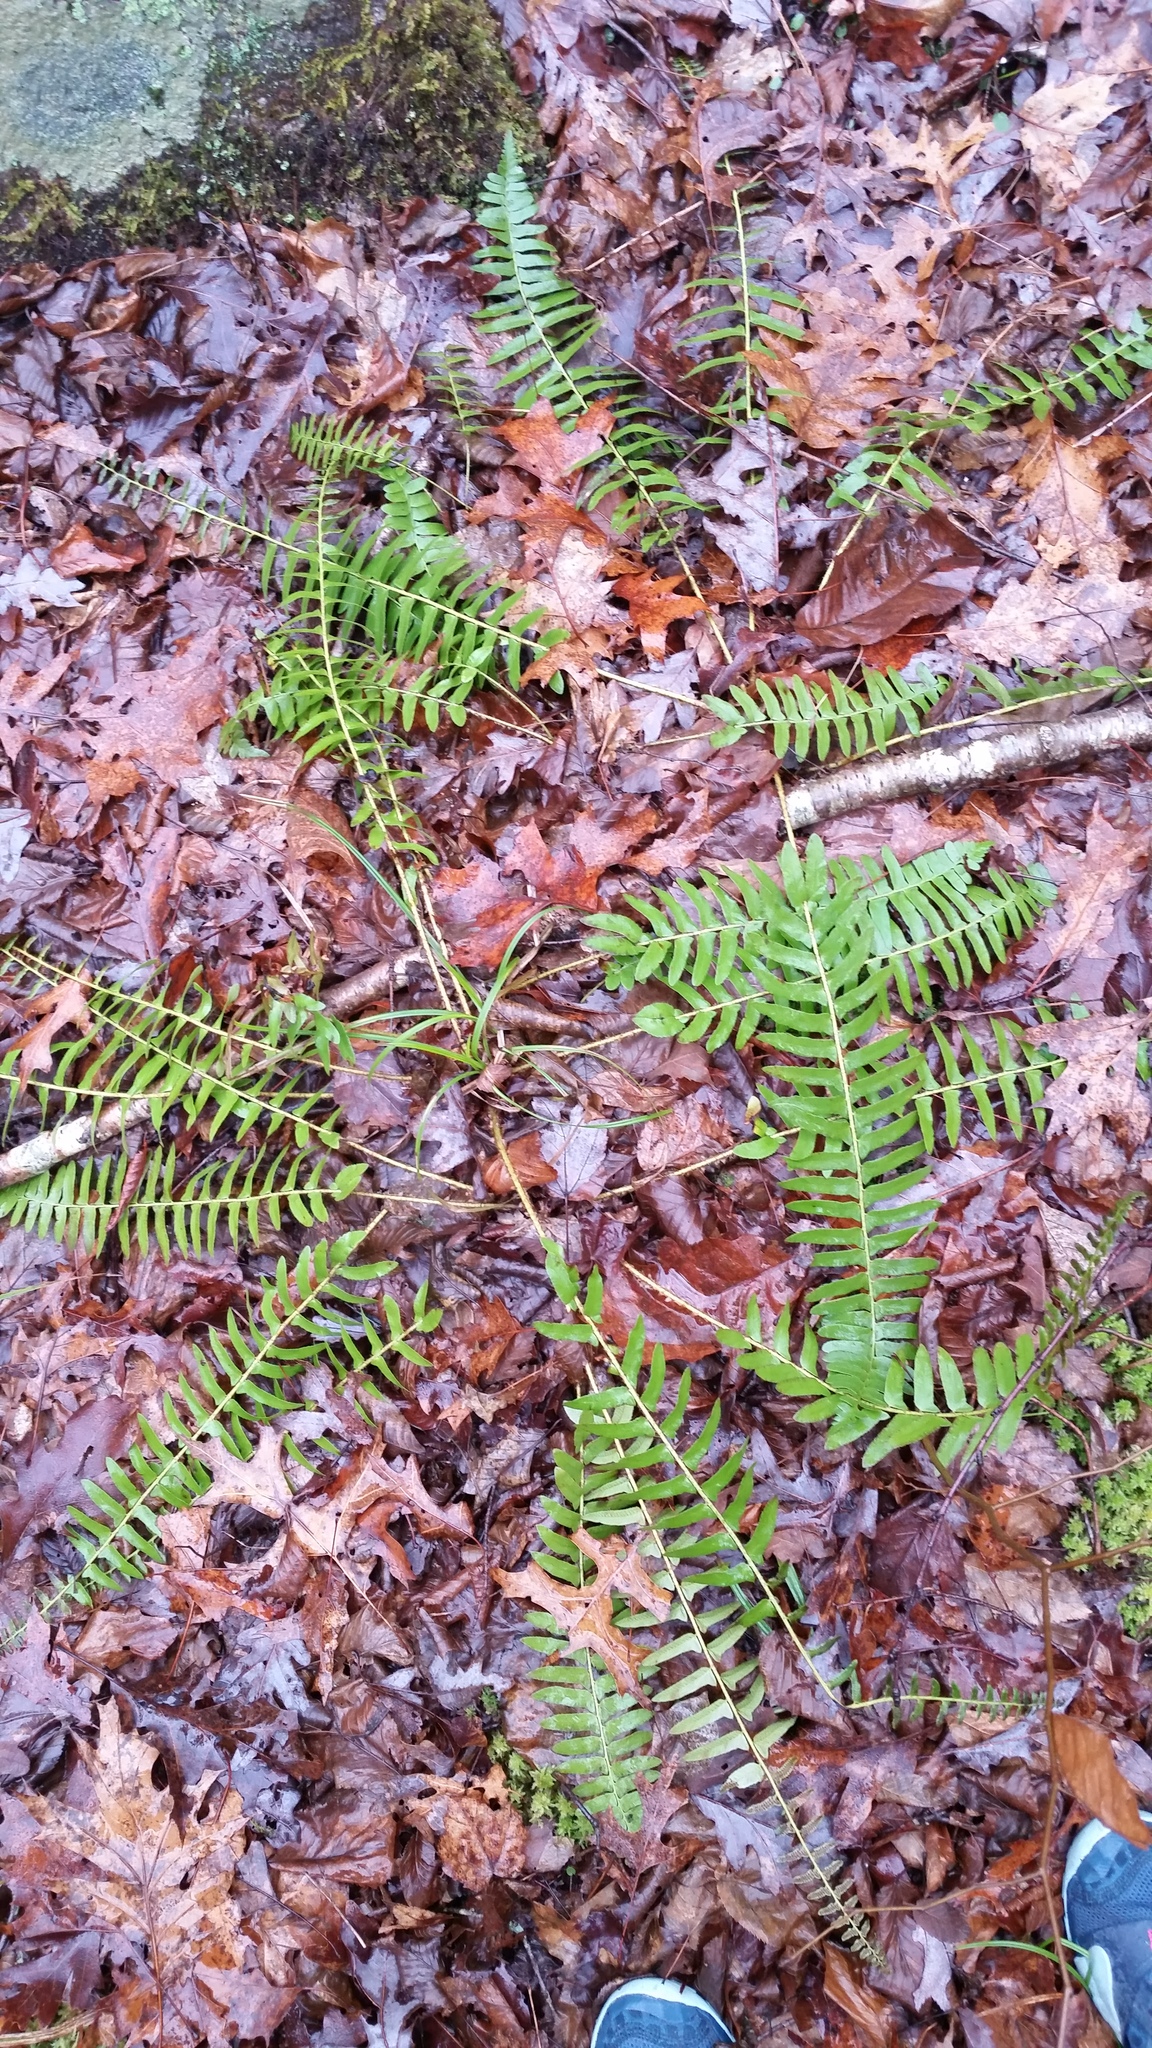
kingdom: Plantae
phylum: Tracheophyta
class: Polypodiopsida
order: Polypodiales
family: Dryopteridaceae
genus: Polystichum
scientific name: Polystichum acrostichoides
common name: Christmas fern
